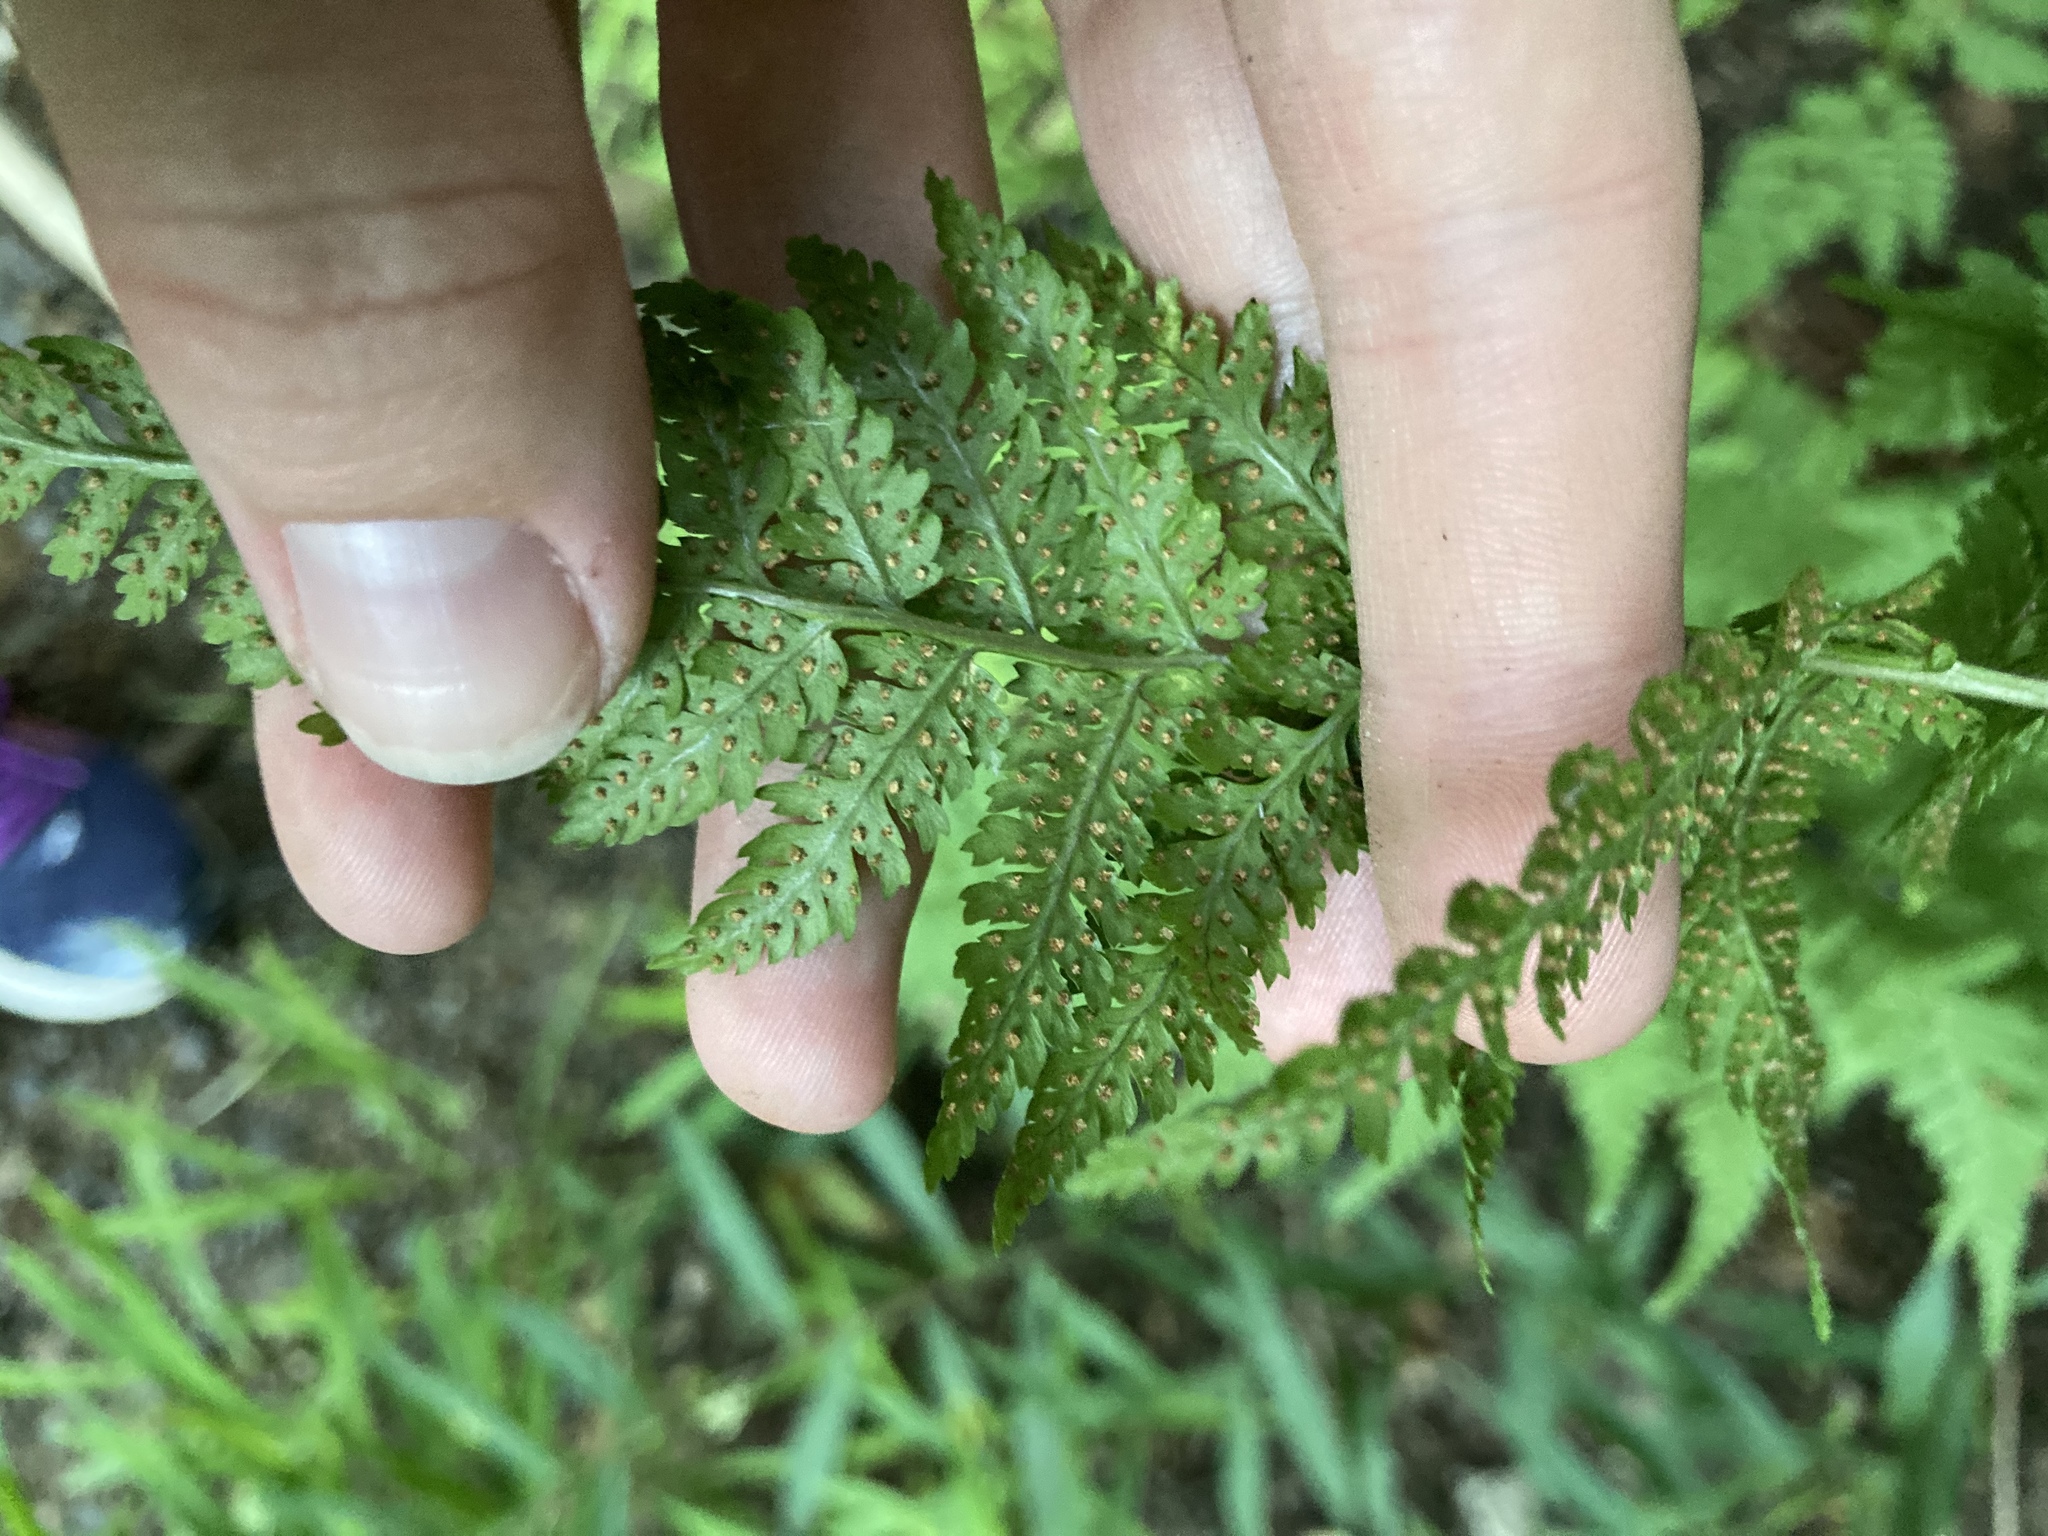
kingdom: Plantae
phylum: Tracheophyta
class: Polypodiopsida
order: Polypodiales
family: Dryopteridaceae
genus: Dryopteris
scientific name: Dryopteris intermedia
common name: Evergreen wood fern
